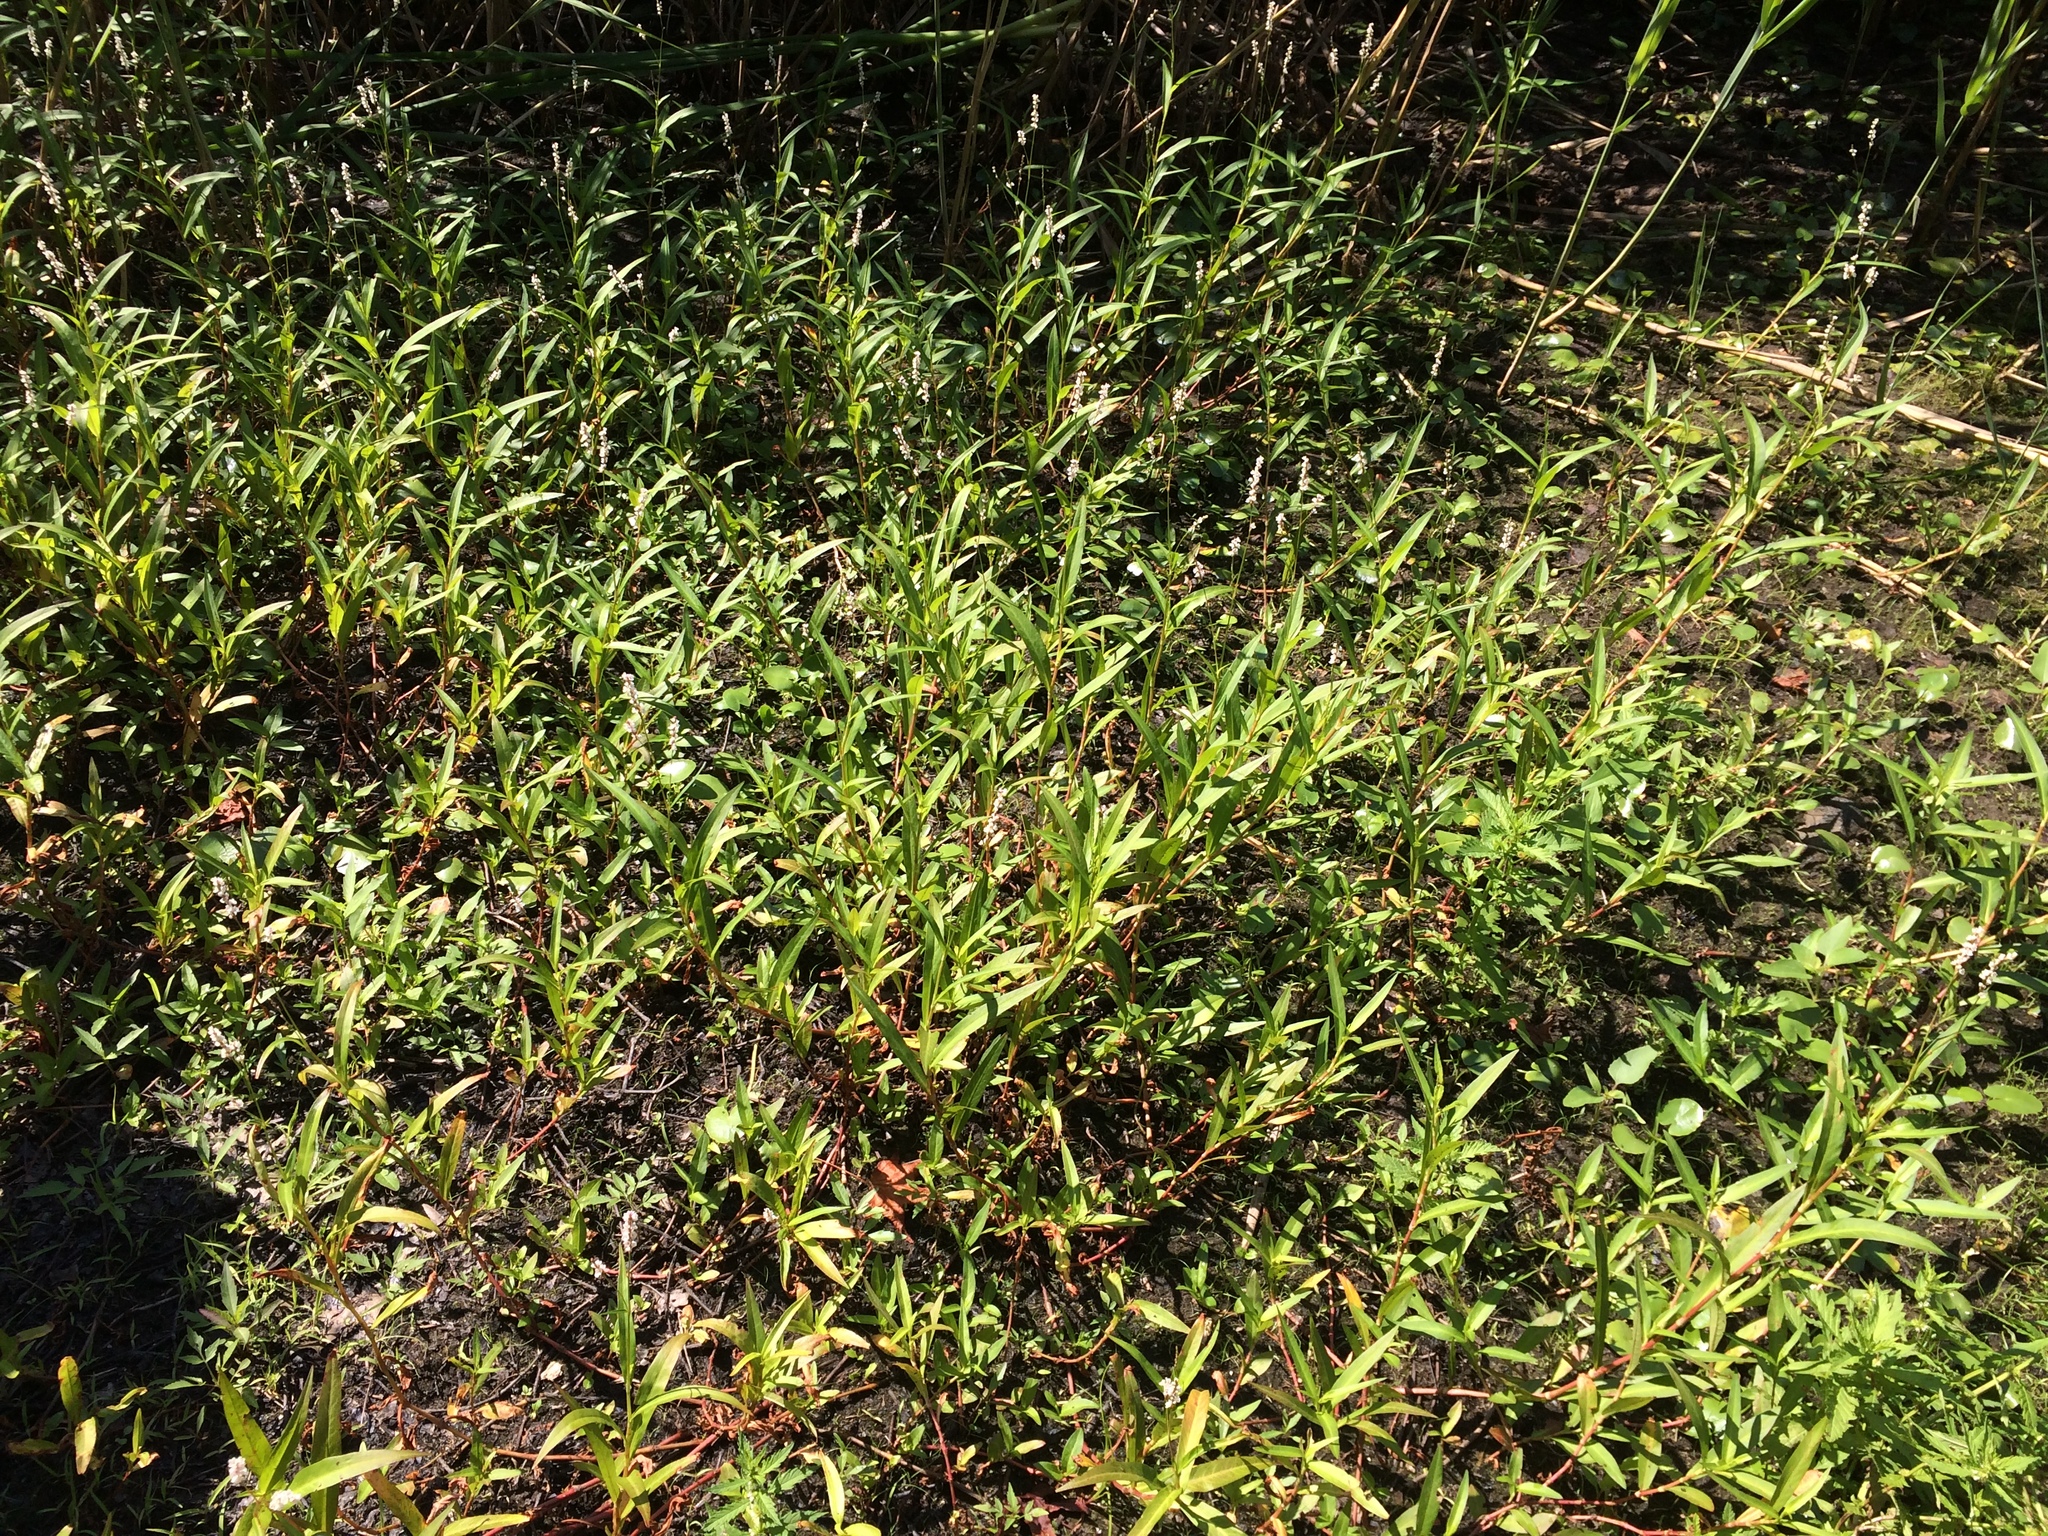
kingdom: Plantae
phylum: Tracheophyta
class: Magnoliopsida
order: Caryophyllales
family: Polygonaceae
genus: Persicaria
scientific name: Persicaria hydropiperoides
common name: Swamp smartweed
